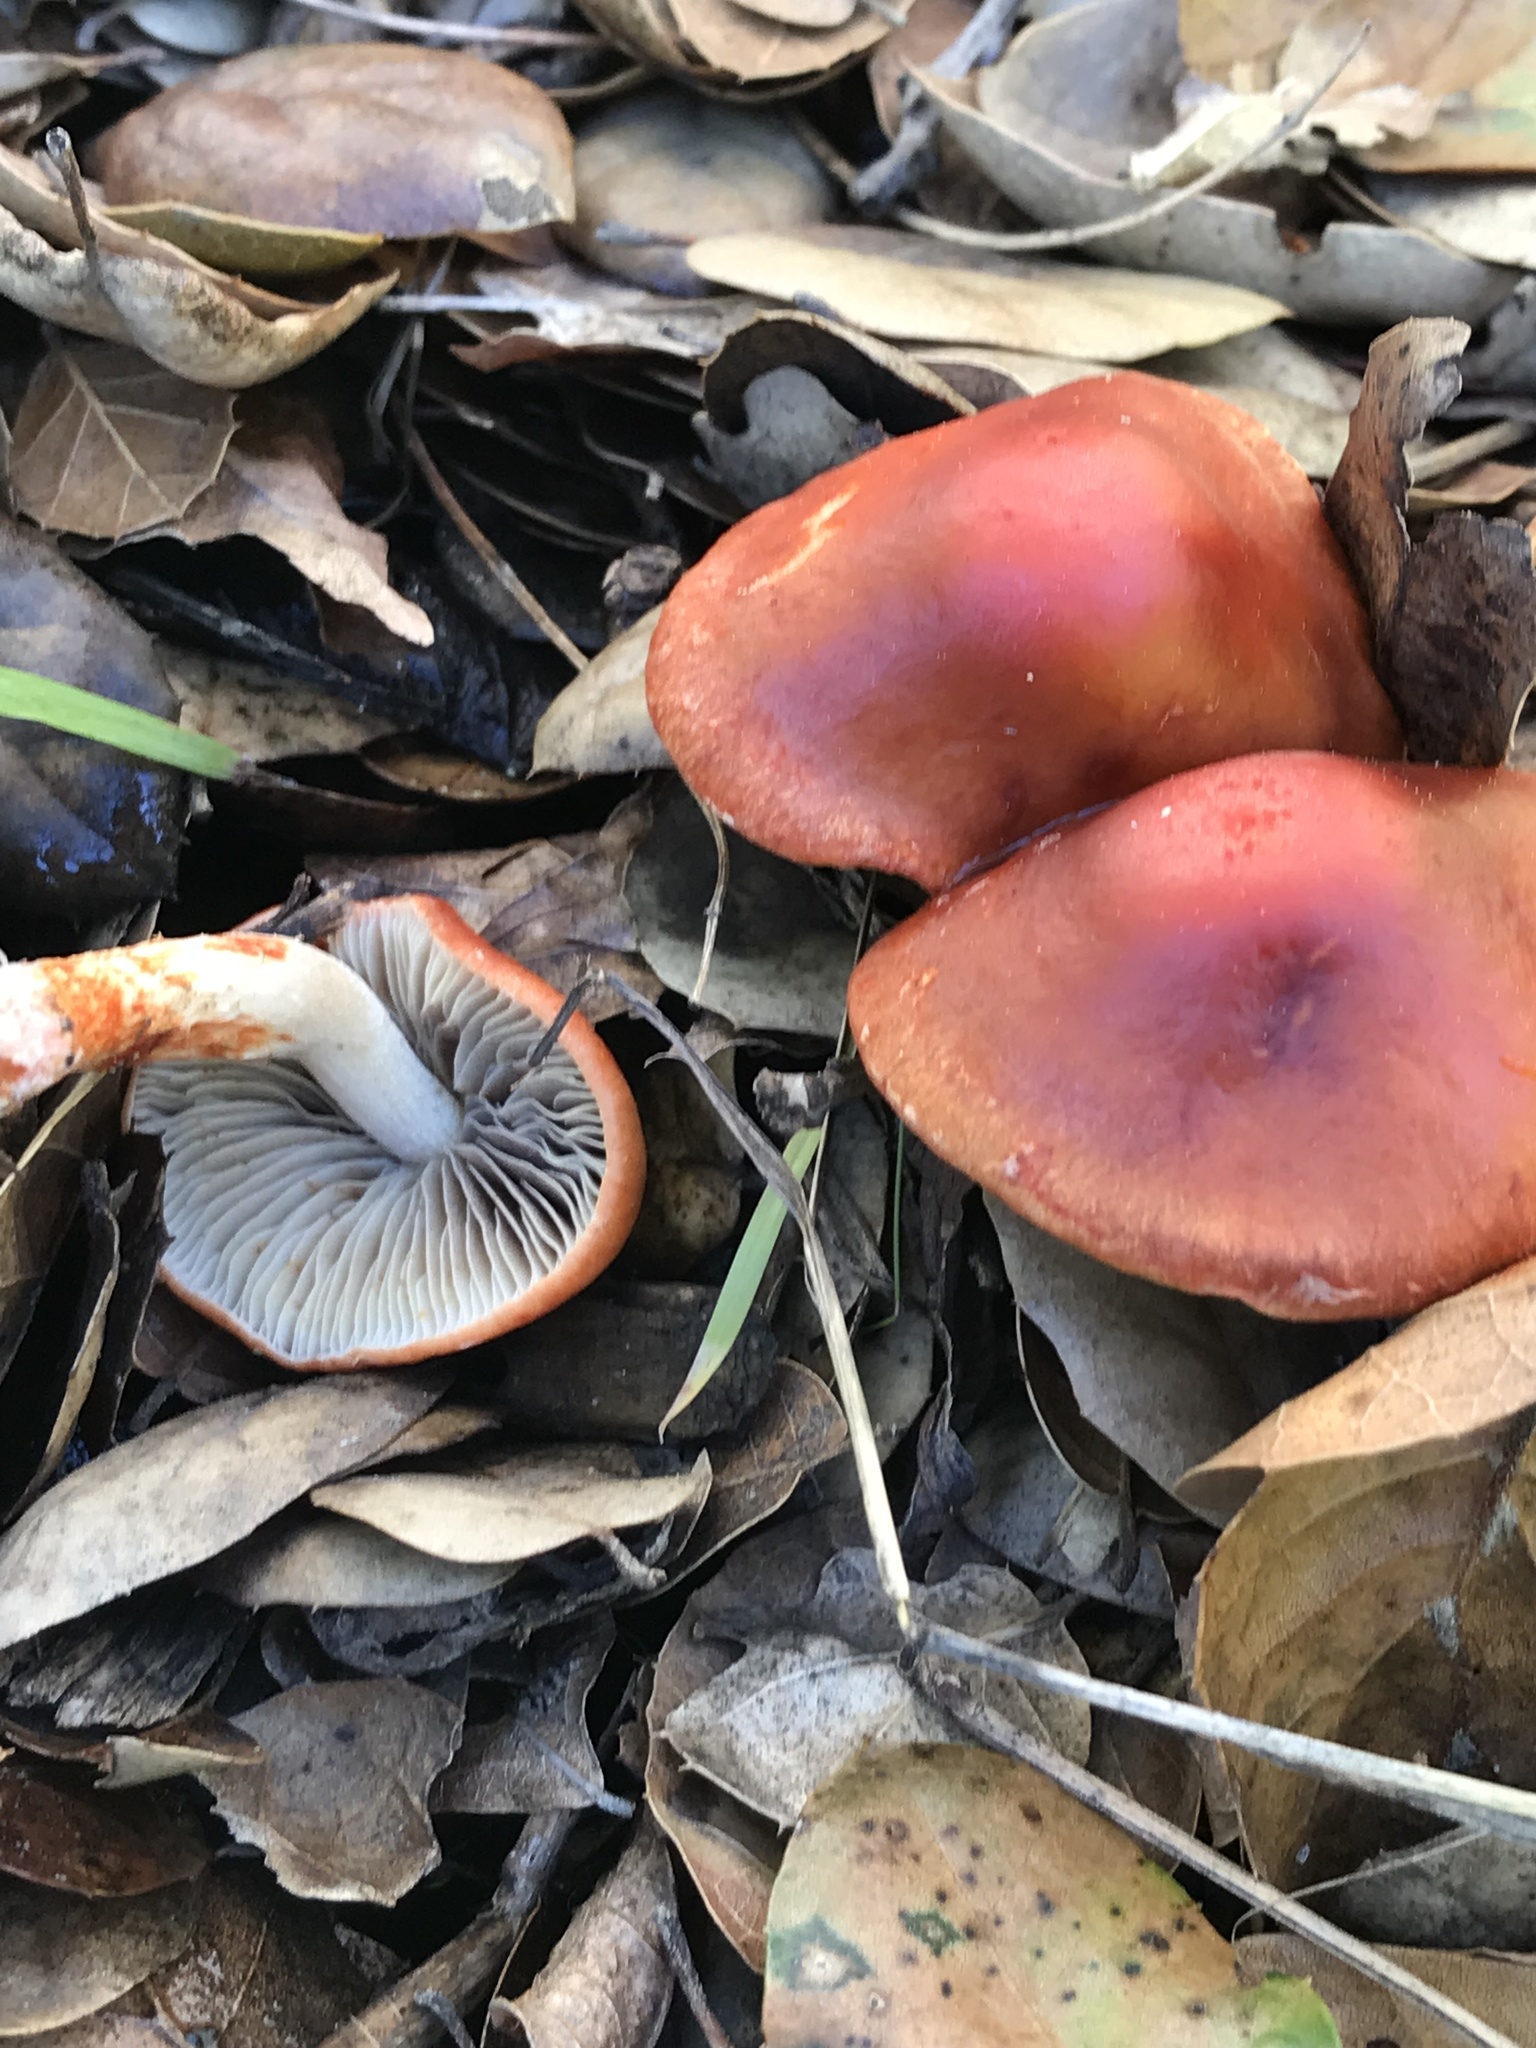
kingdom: Fungi
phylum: Basidiomycota
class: Agaricomycetes
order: Agaricales
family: Strophariaceae
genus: Leratiomyces
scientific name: Leratiomyces ceres
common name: Redlead roundhead
